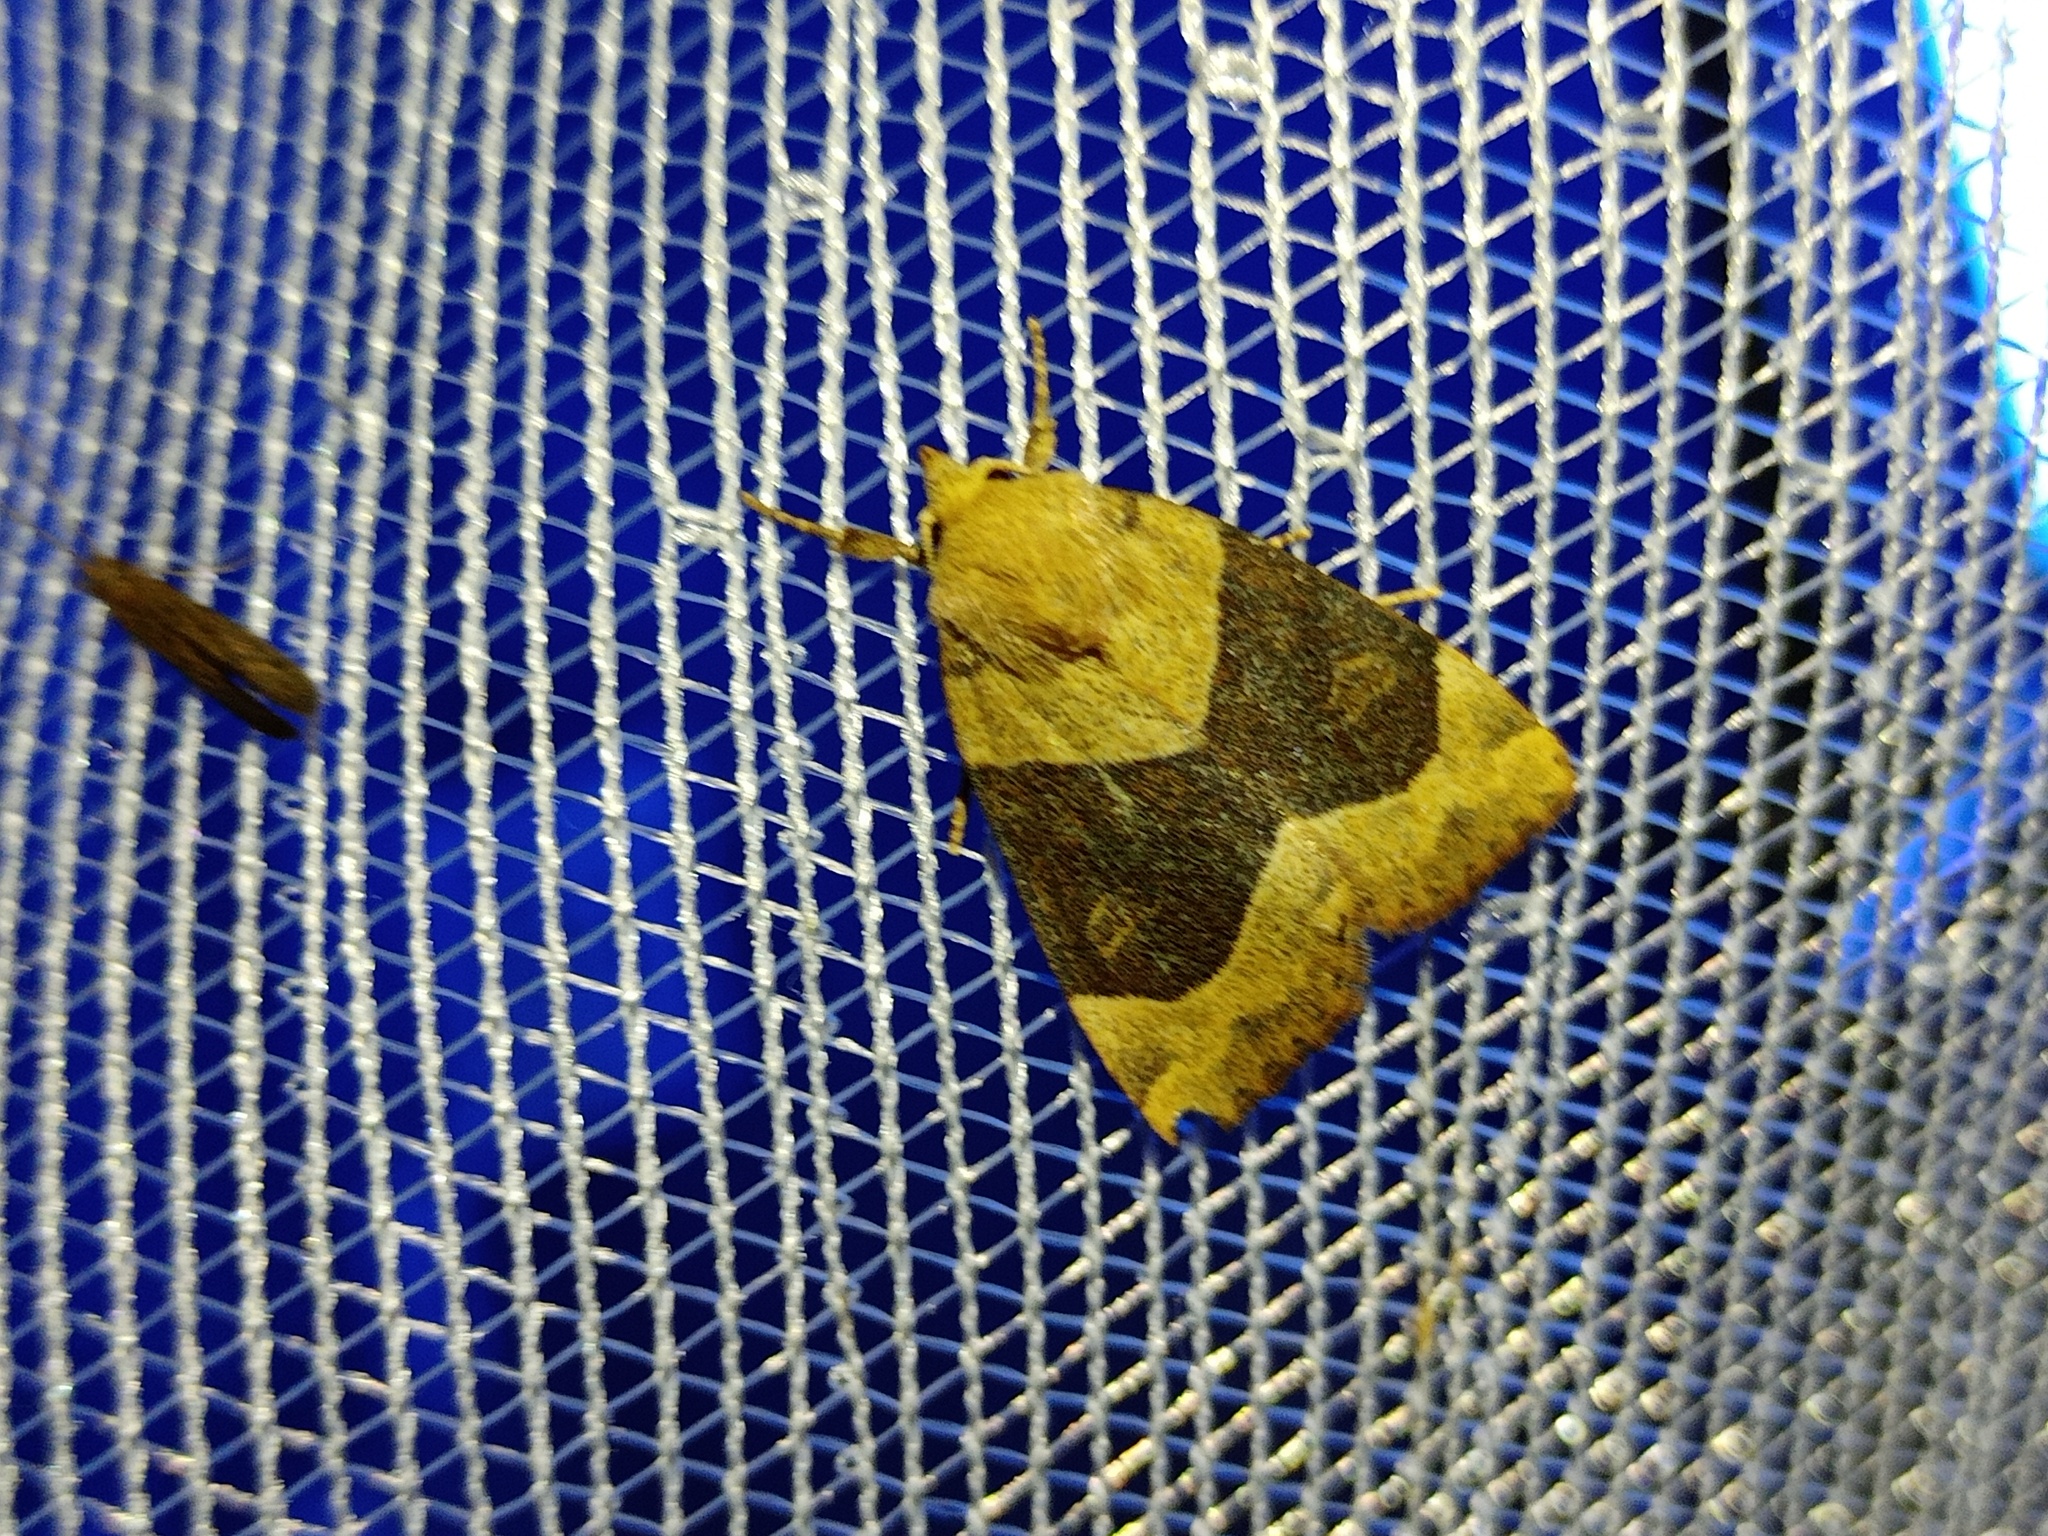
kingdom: Animalia
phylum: Arthropoda
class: Insecta
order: Lepidoptera
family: Noctuidae
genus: Cosmia
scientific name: Cosmia trapezina
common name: Dun-bar
